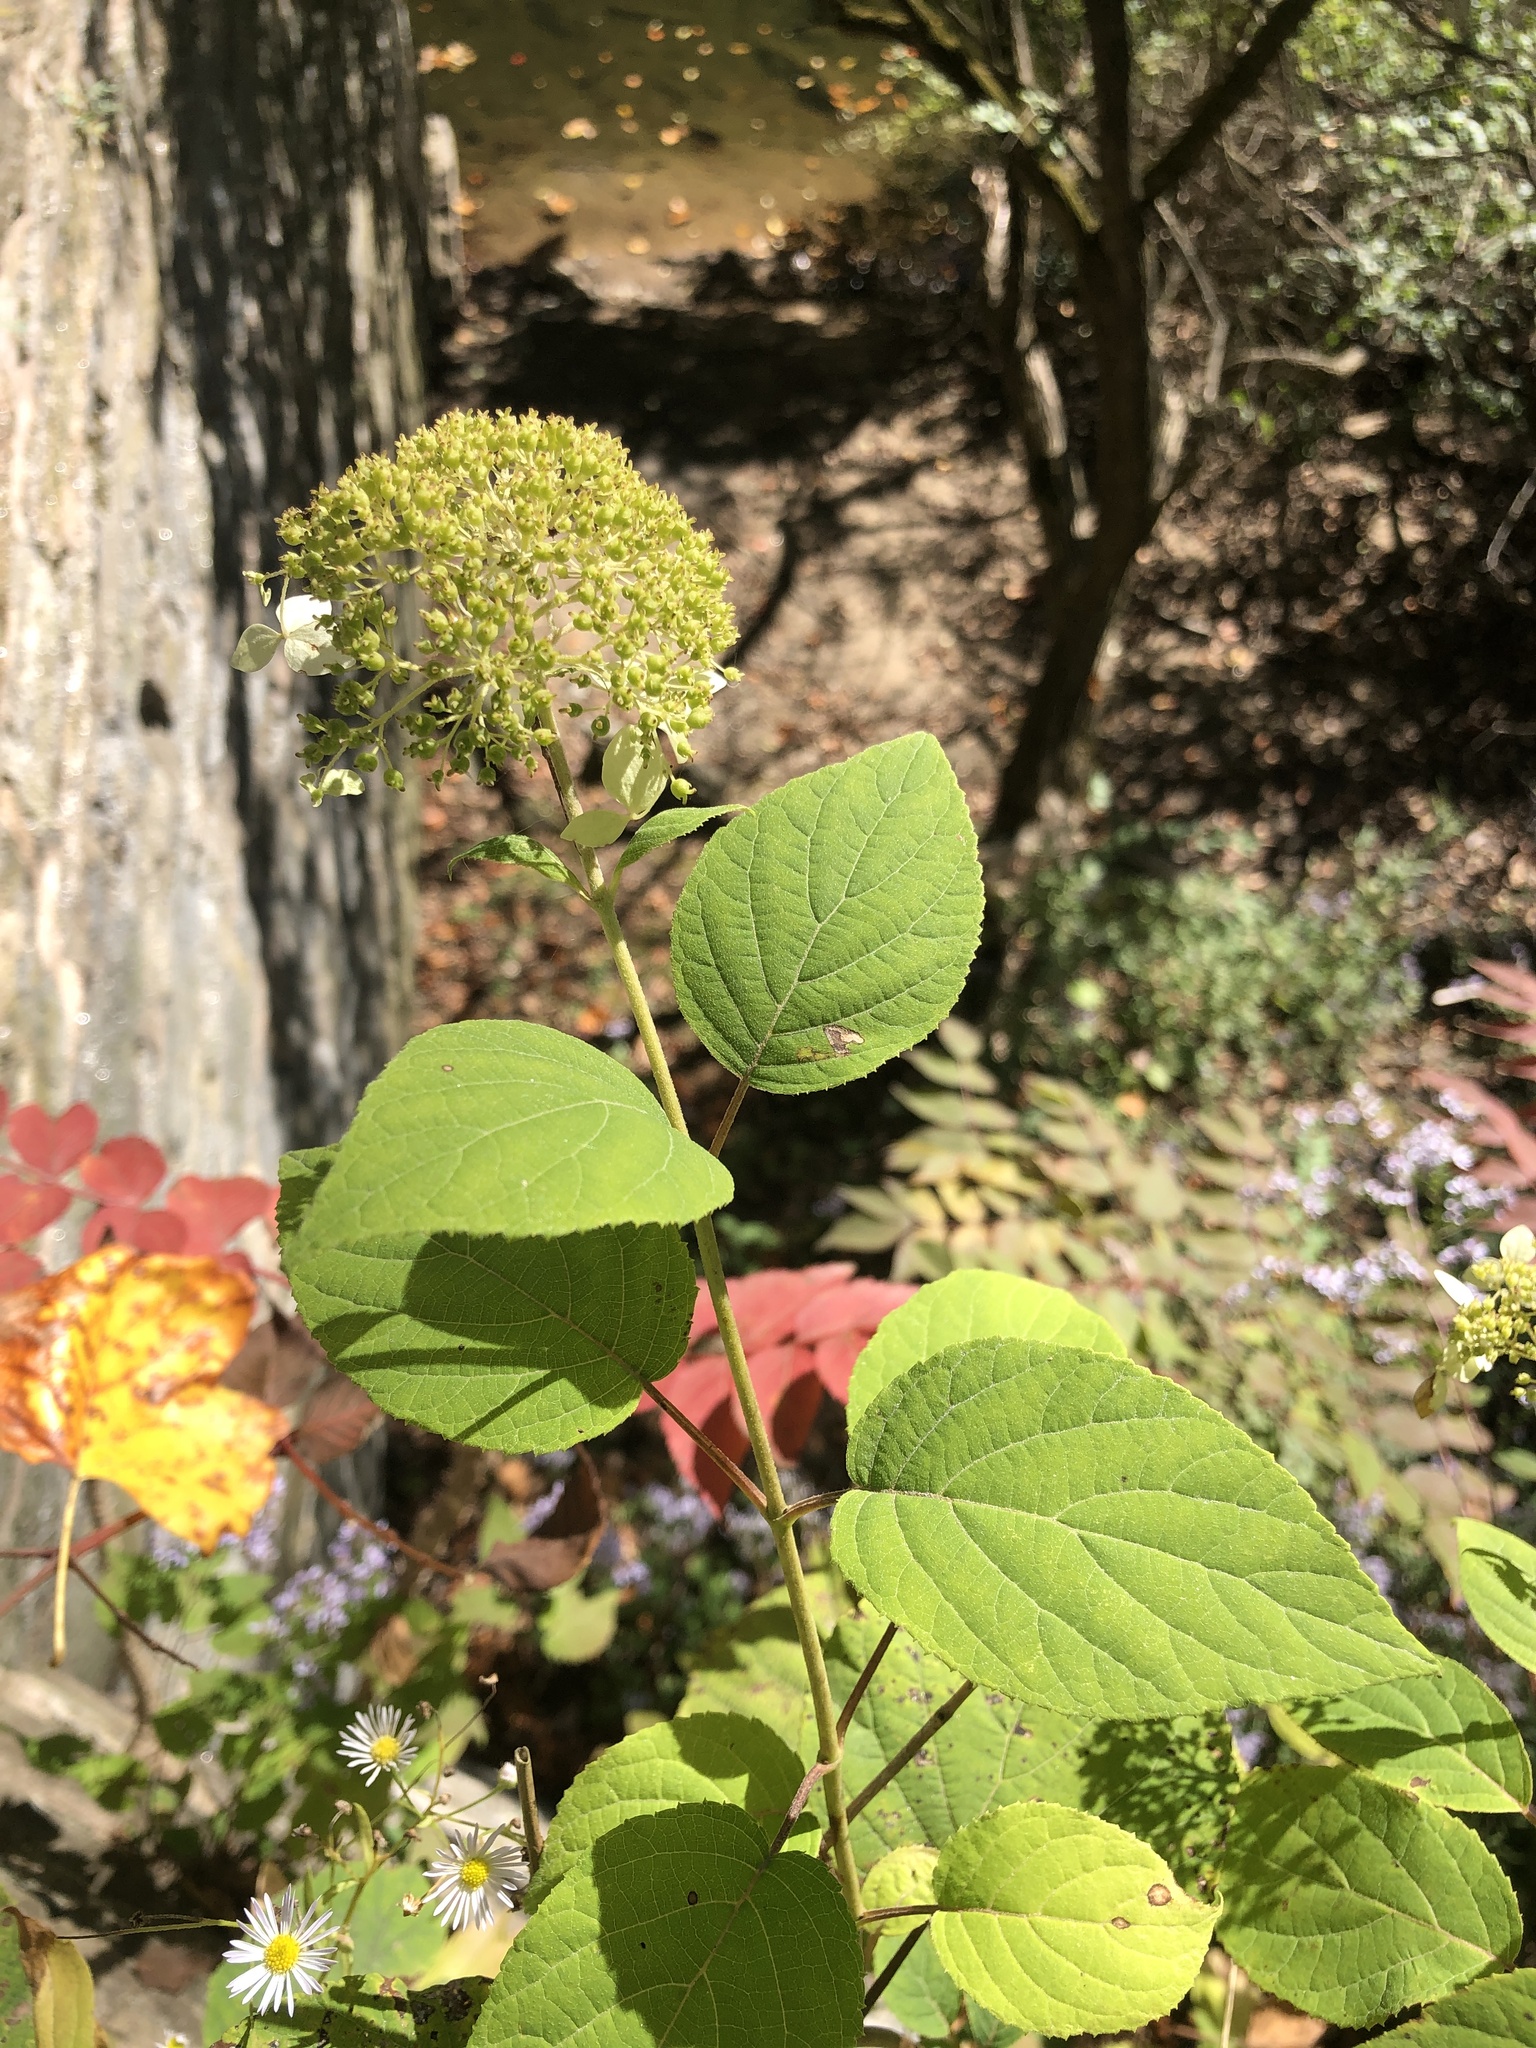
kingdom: Plantae
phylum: Tracheophyta
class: Magnoliopsida
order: Cornales
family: Hydrangeaceae
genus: Hydrangea
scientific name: Hydrangea arborescens
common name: Sevenbark
